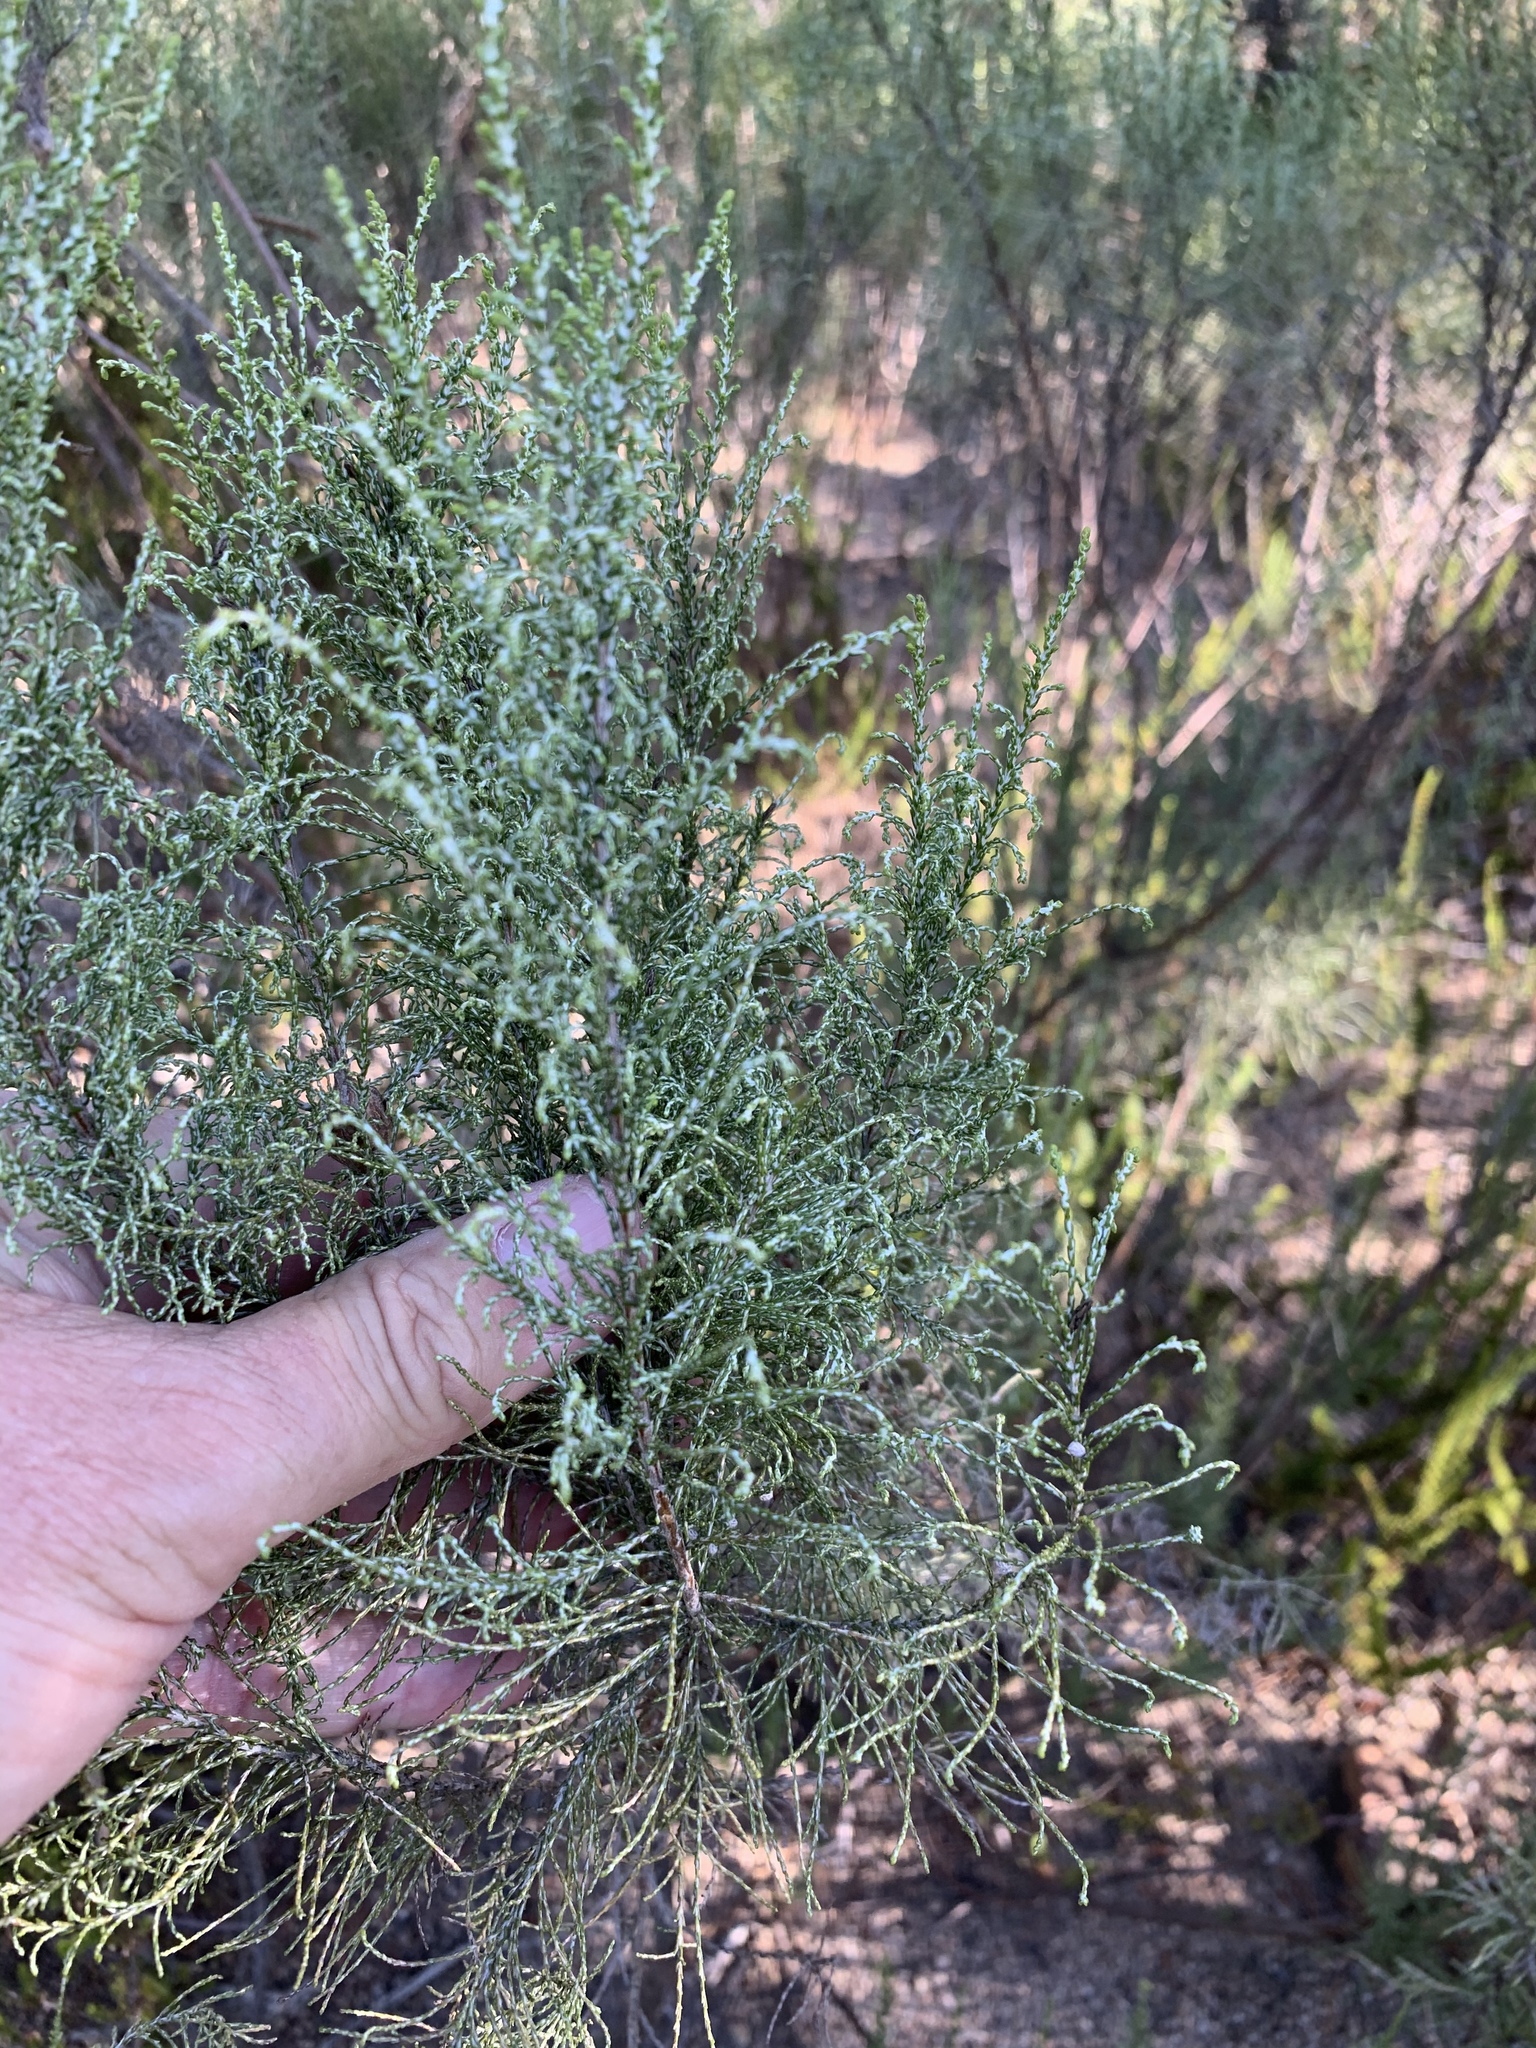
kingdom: Plantae
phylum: Tracheophyta
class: Magnoliopsida
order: Asterales
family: Asteraceae
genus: Dicerothamnus
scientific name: Dicerothamnus rhinocerotis
